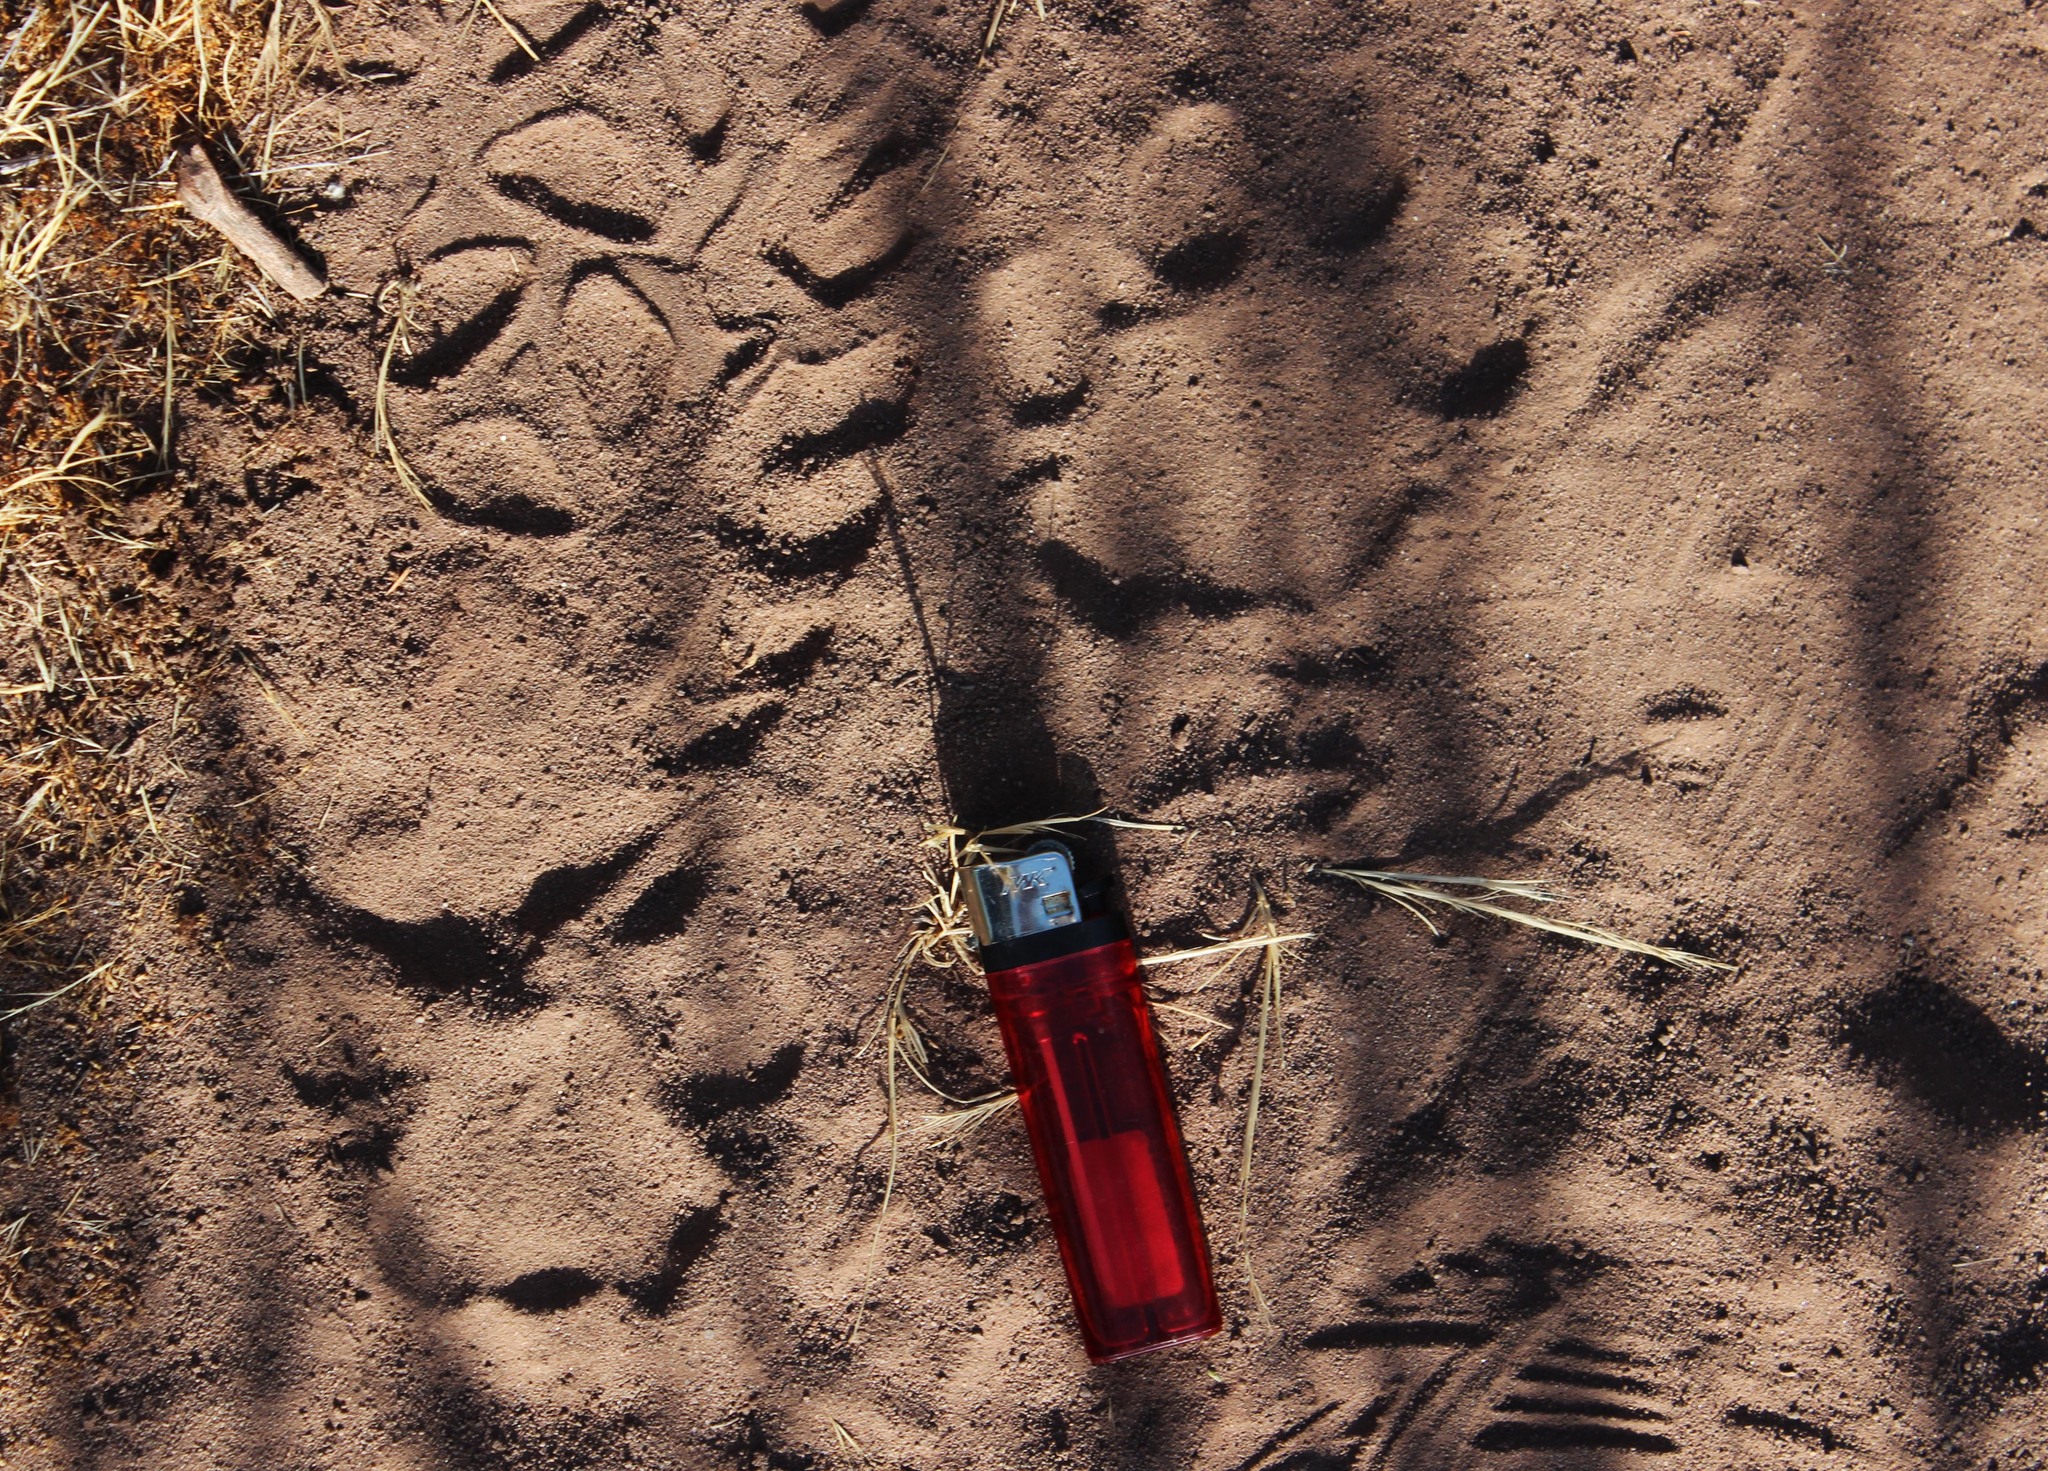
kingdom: Animalia
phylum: Chordata
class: Mammalia
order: Carnivora
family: Felidae
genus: Puma
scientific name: Puma concolor
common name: Puma
